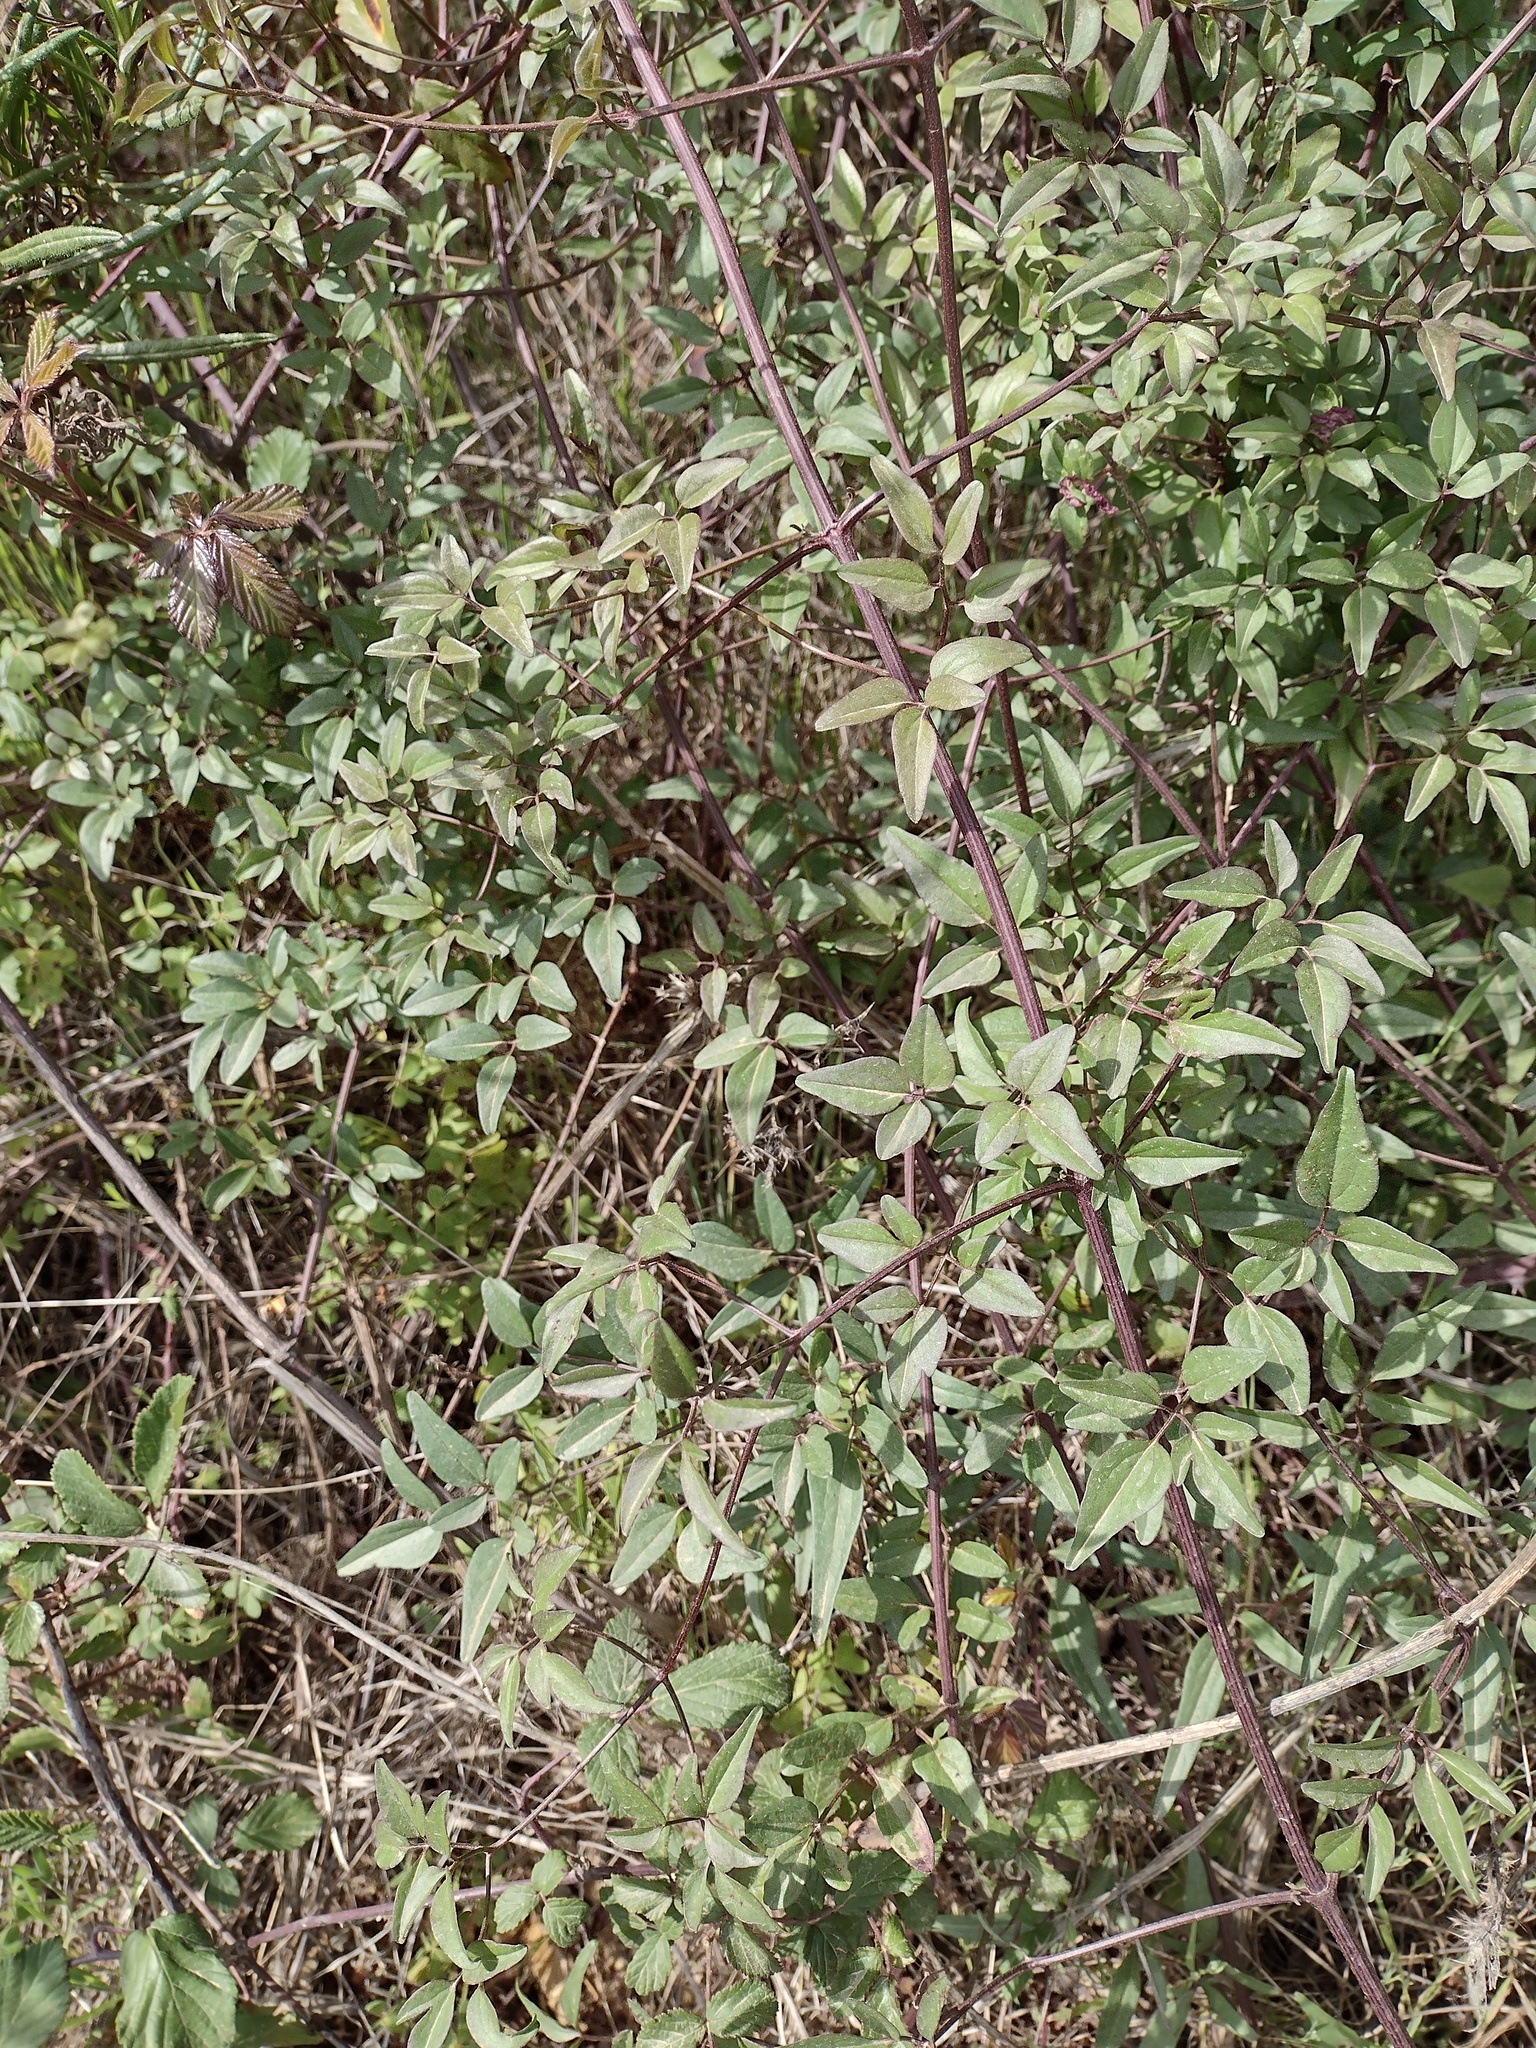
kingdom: Plantae
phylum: Tracheophyta
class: Magnoliopsida
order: Ranunculales
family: Ranunculaceae
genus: Clematis
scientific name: Clematis flammula
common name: Virgin's-bower
